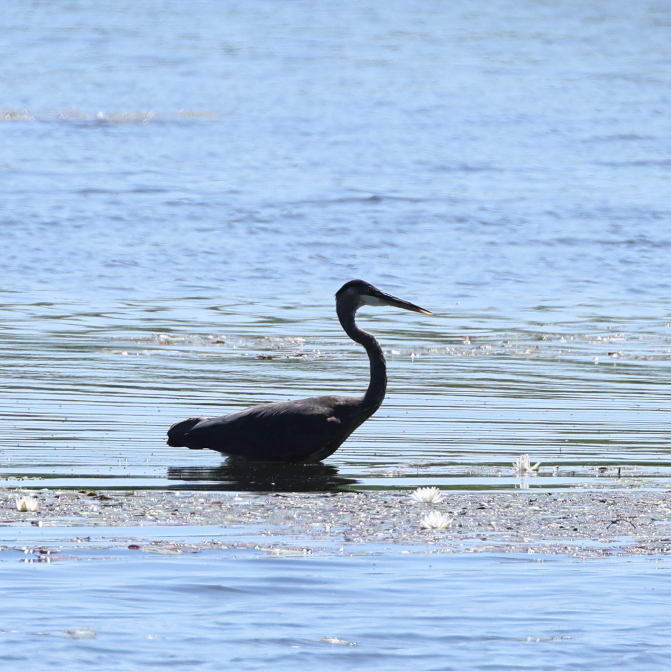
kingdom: Animalia
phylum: Chordata
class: Aves
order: Pelecaniformes
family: Ardeidae
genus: Ardea
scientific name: Ardea herodias
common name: Great blue heron
